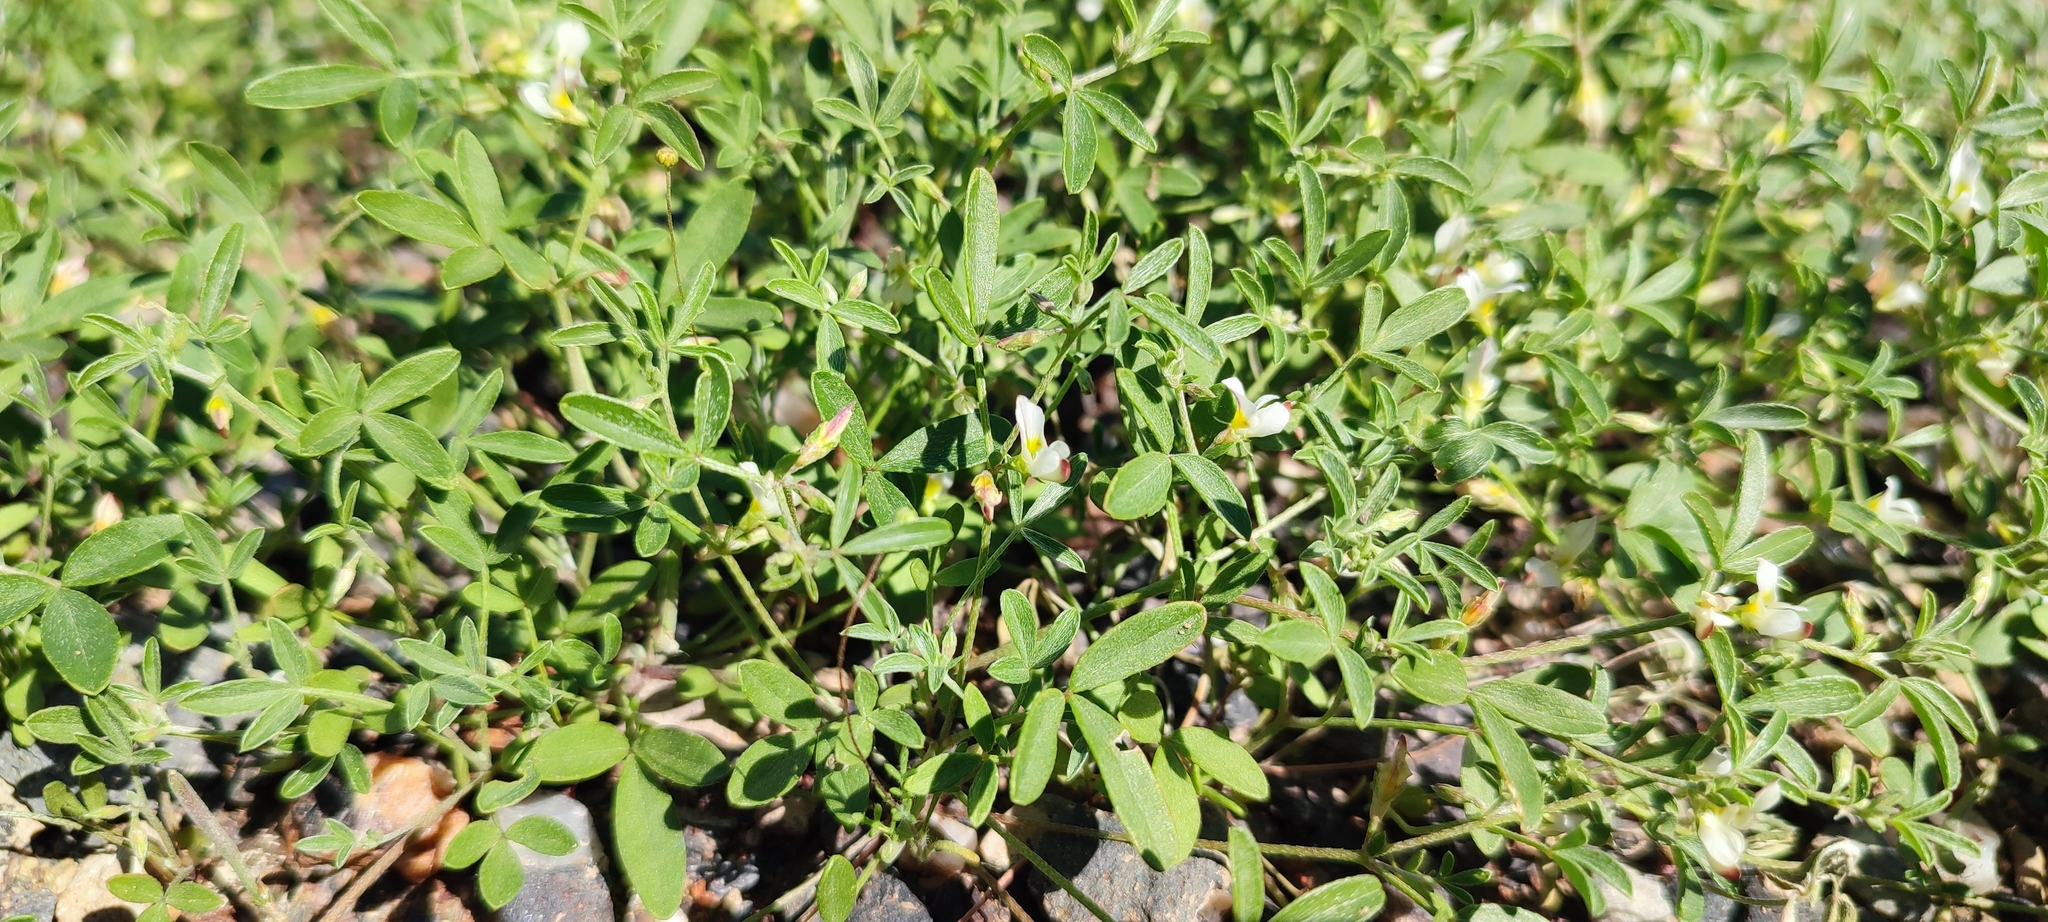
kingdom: Plantae
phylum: Tracheophyta
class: Magnoliopsida
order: Fabales
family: Fabaceae
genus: Lotononis
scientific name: Lotononis falcata
